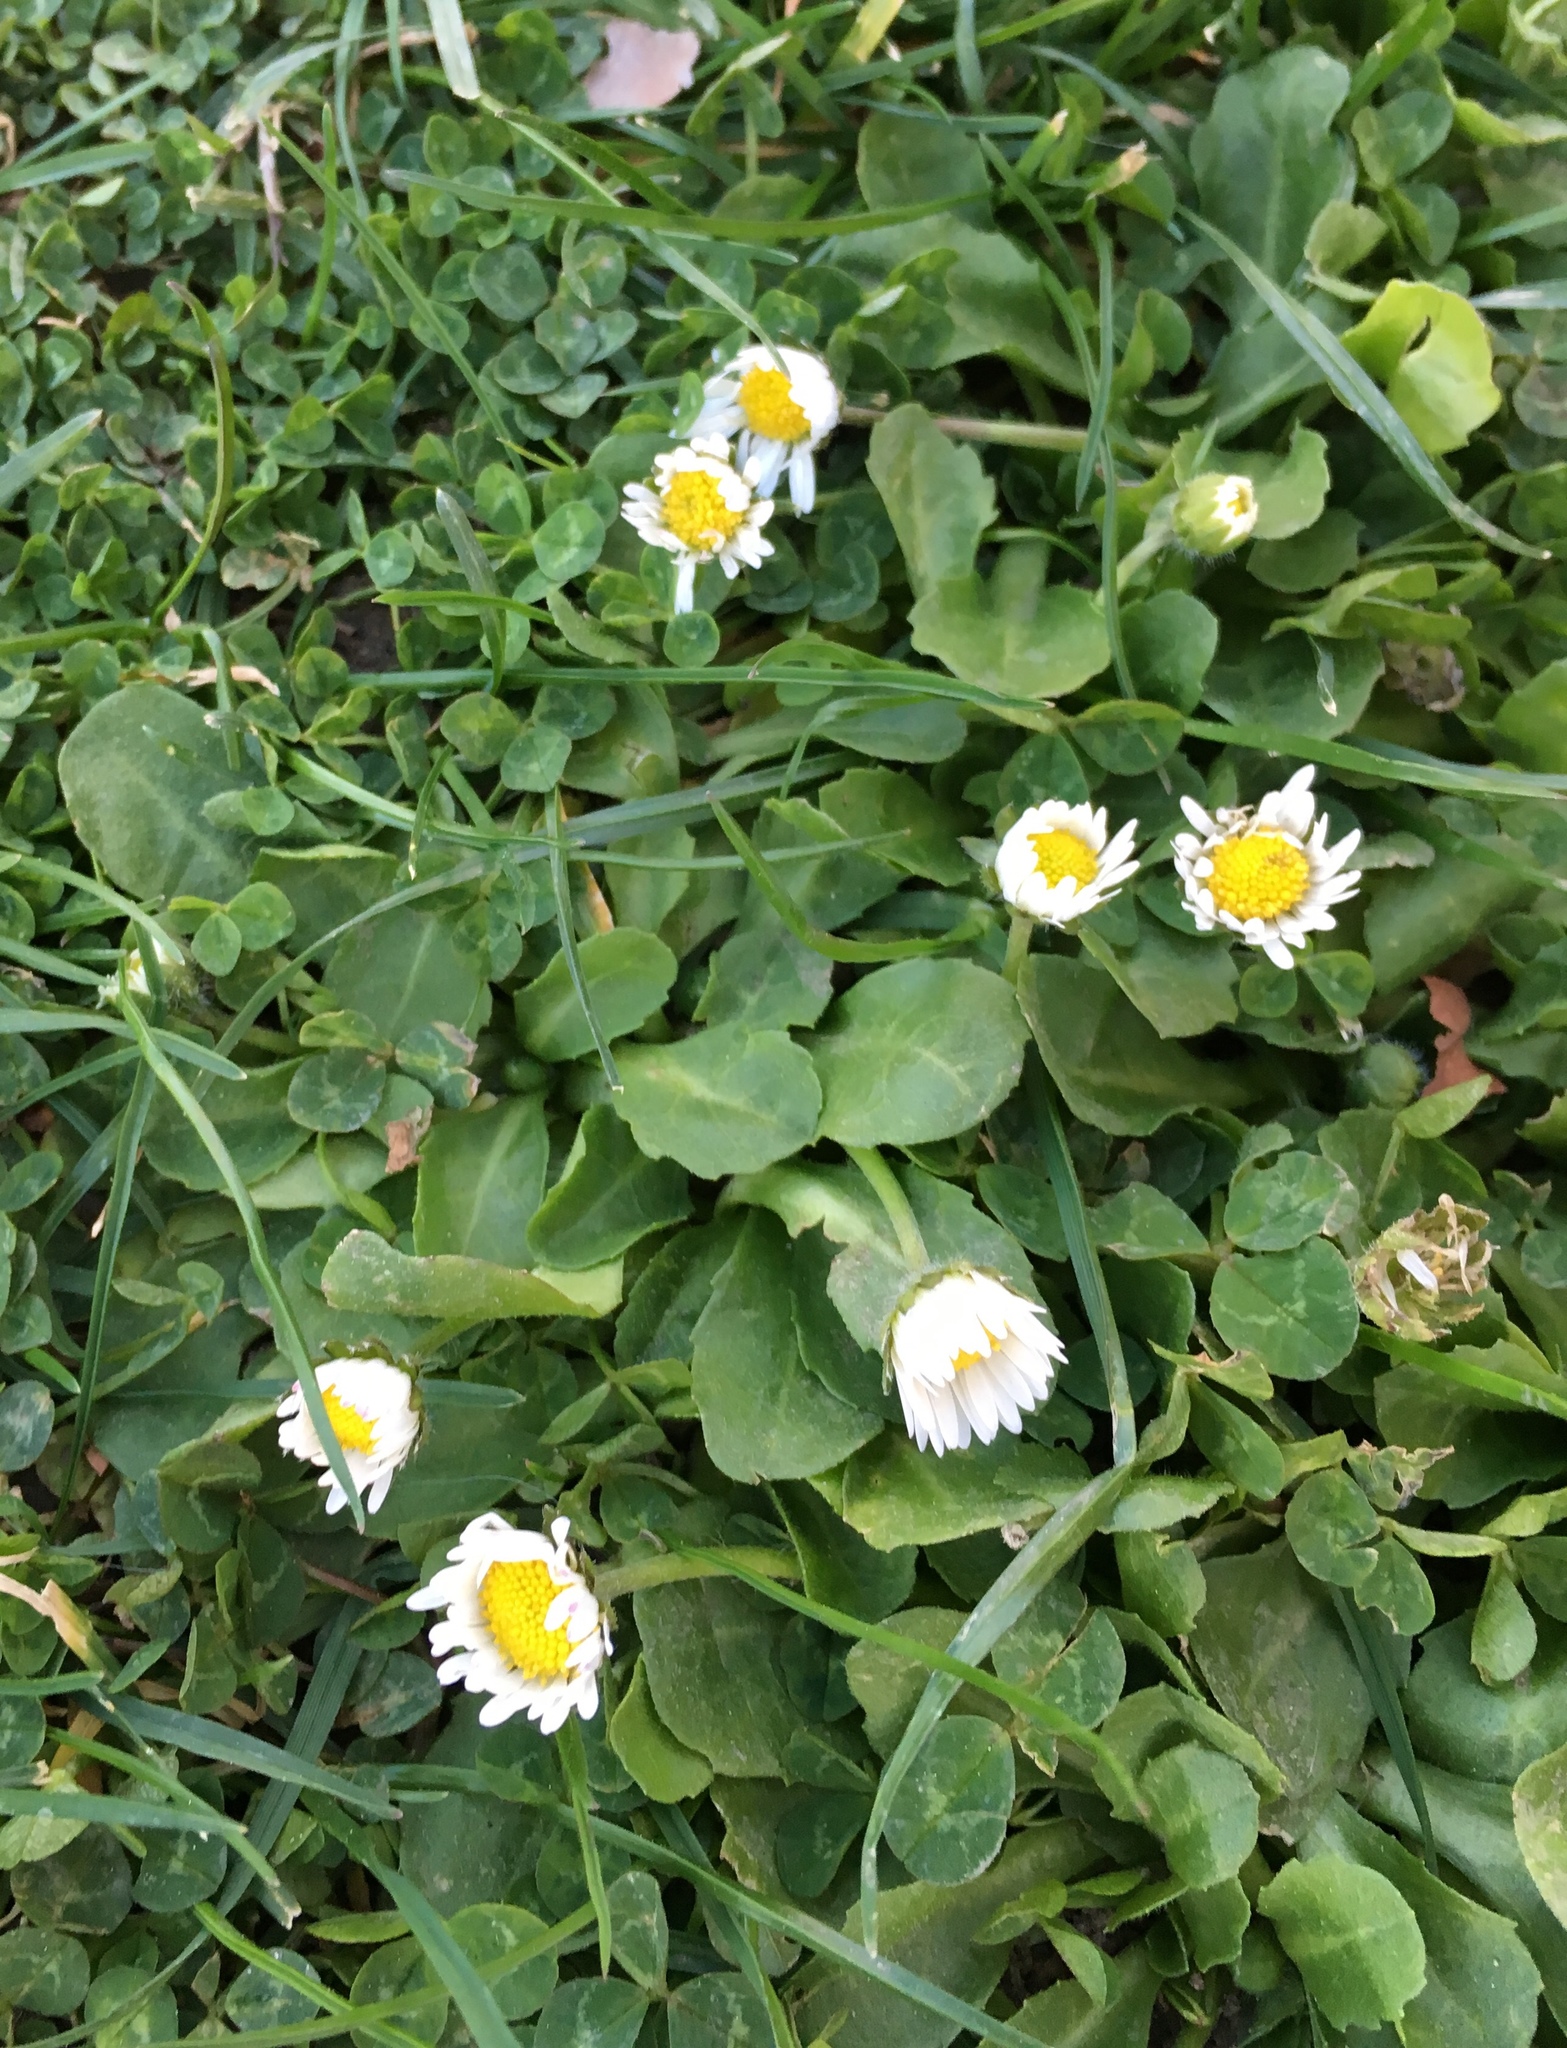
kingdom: Plantae
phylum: Tracheophyta
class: Magnoliopsida
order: Asterales
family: Asteraceae
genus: Bellis
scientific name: Bellis perennis
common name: Lawndaisy
